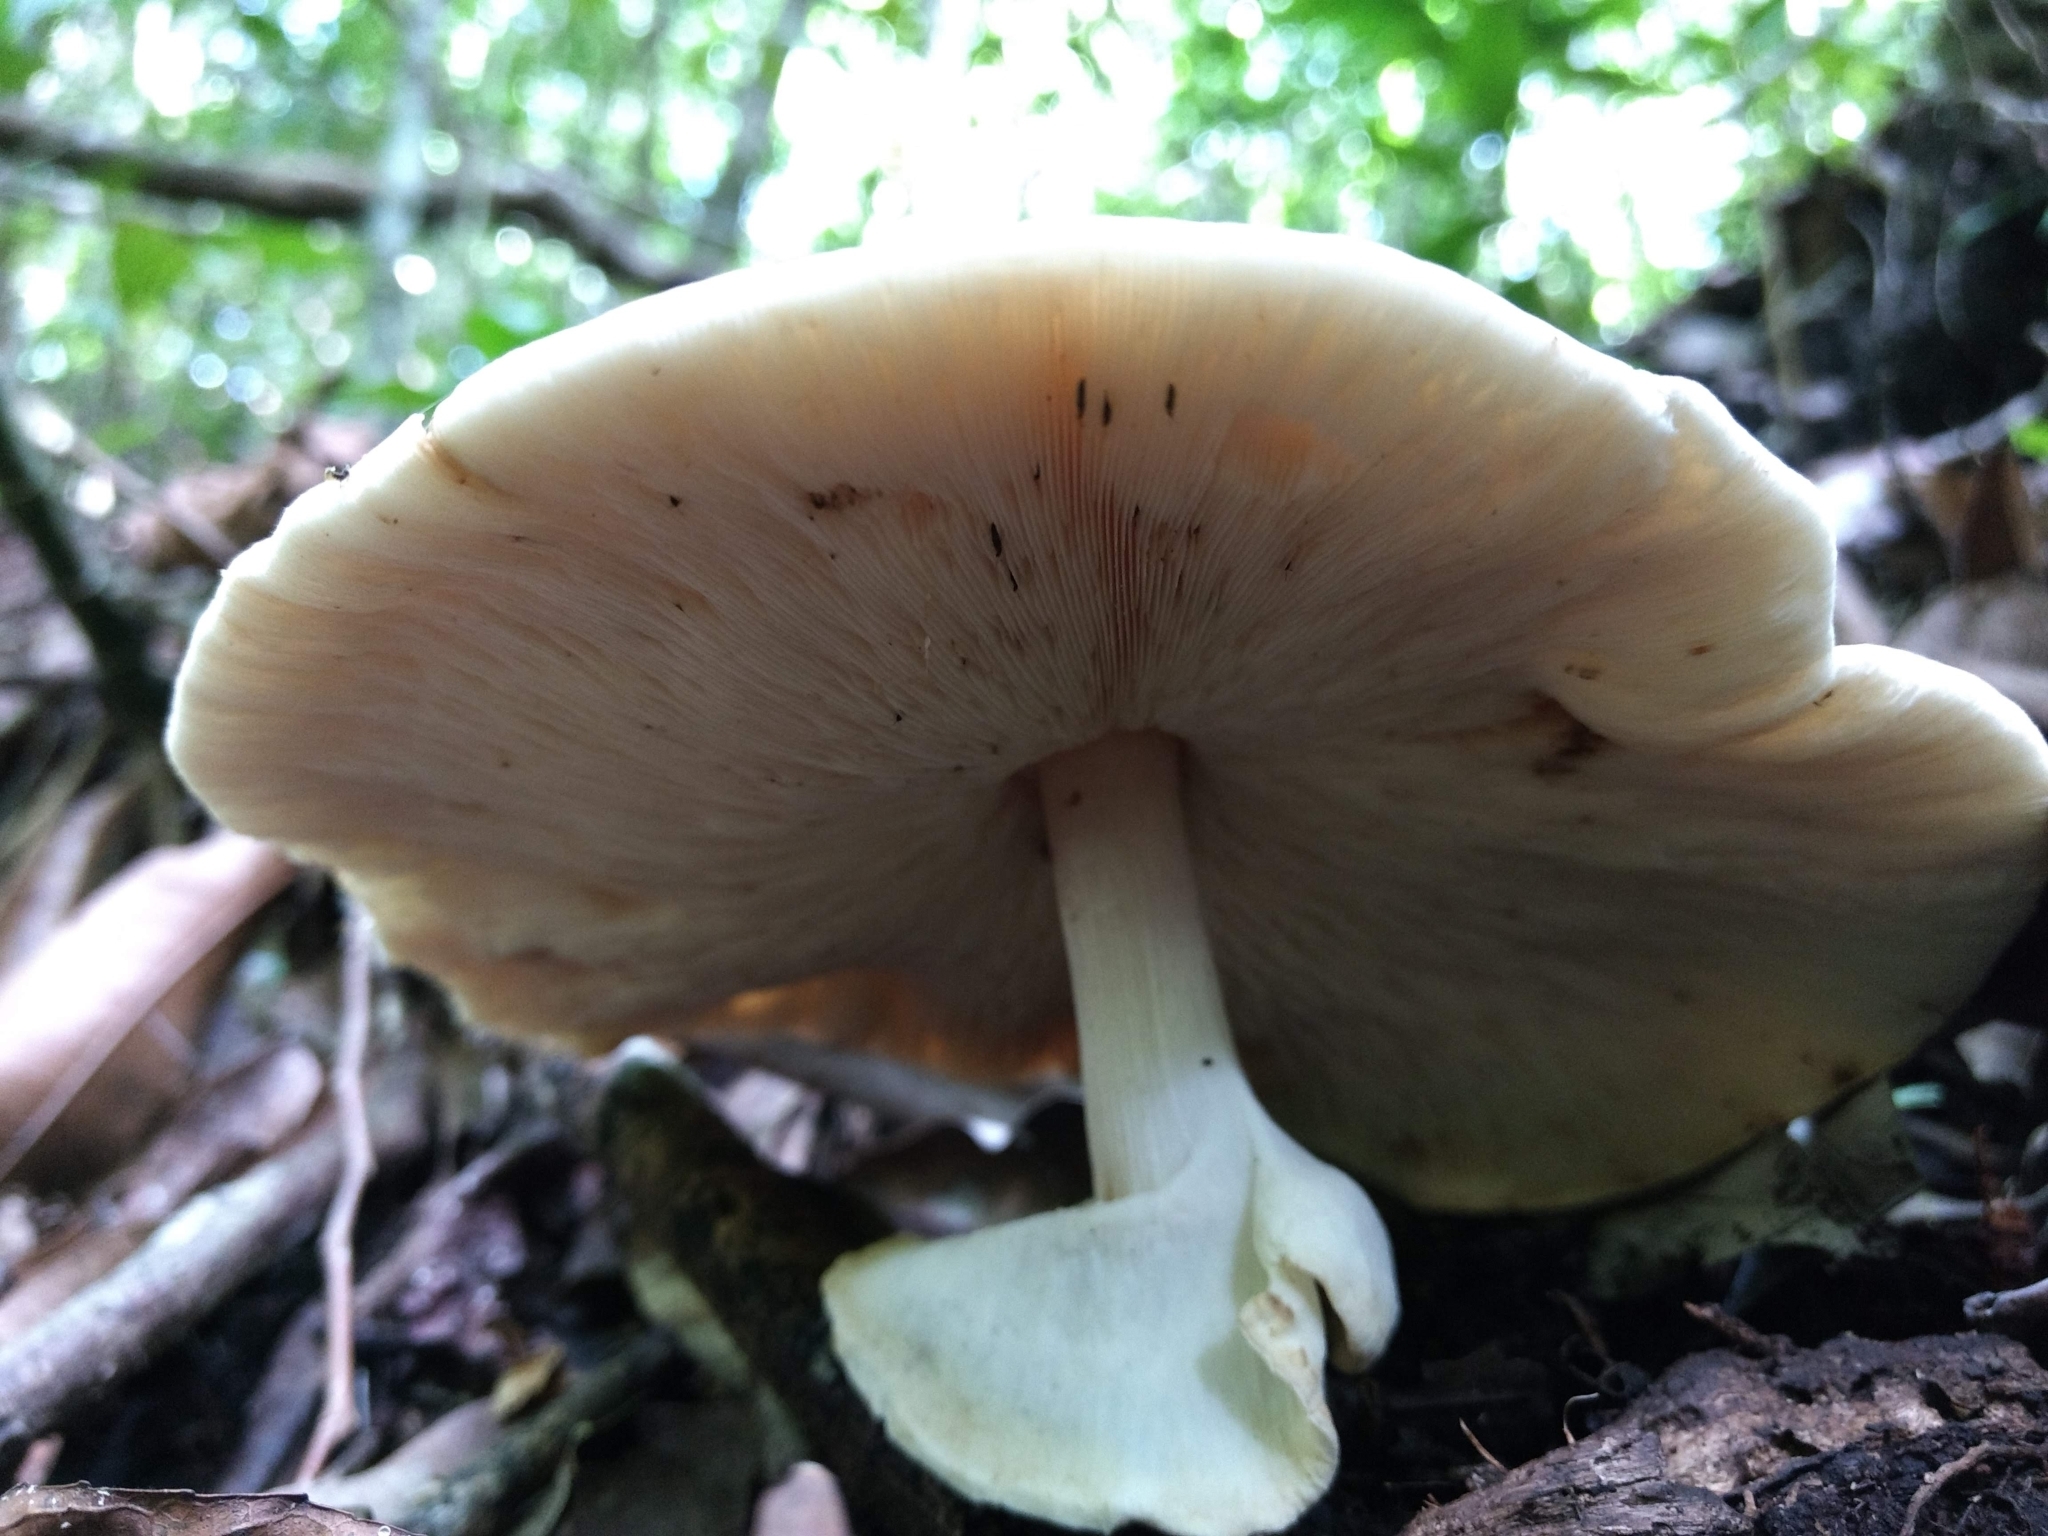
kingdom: Fungi
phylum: Basidiomycota
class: Agaricomycetes
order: Agaricales
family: Agaricaceae
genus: Cystolepiota
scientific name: Cystolepiota hemisclera
